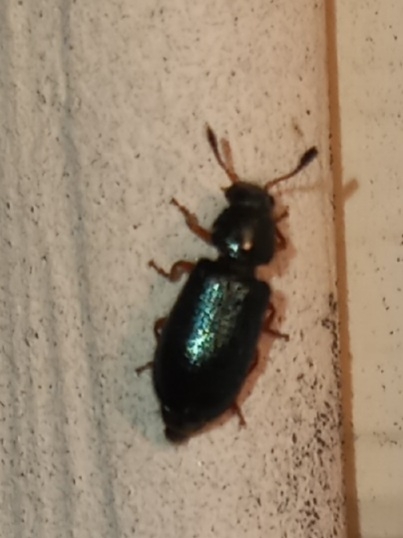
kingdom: Animalia
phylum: Arthropoda
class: Insecta
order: Coleoptera
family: Cleridae
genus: Necrobia
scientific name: Necrobia rufipes
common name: Red-legged ham beetle
